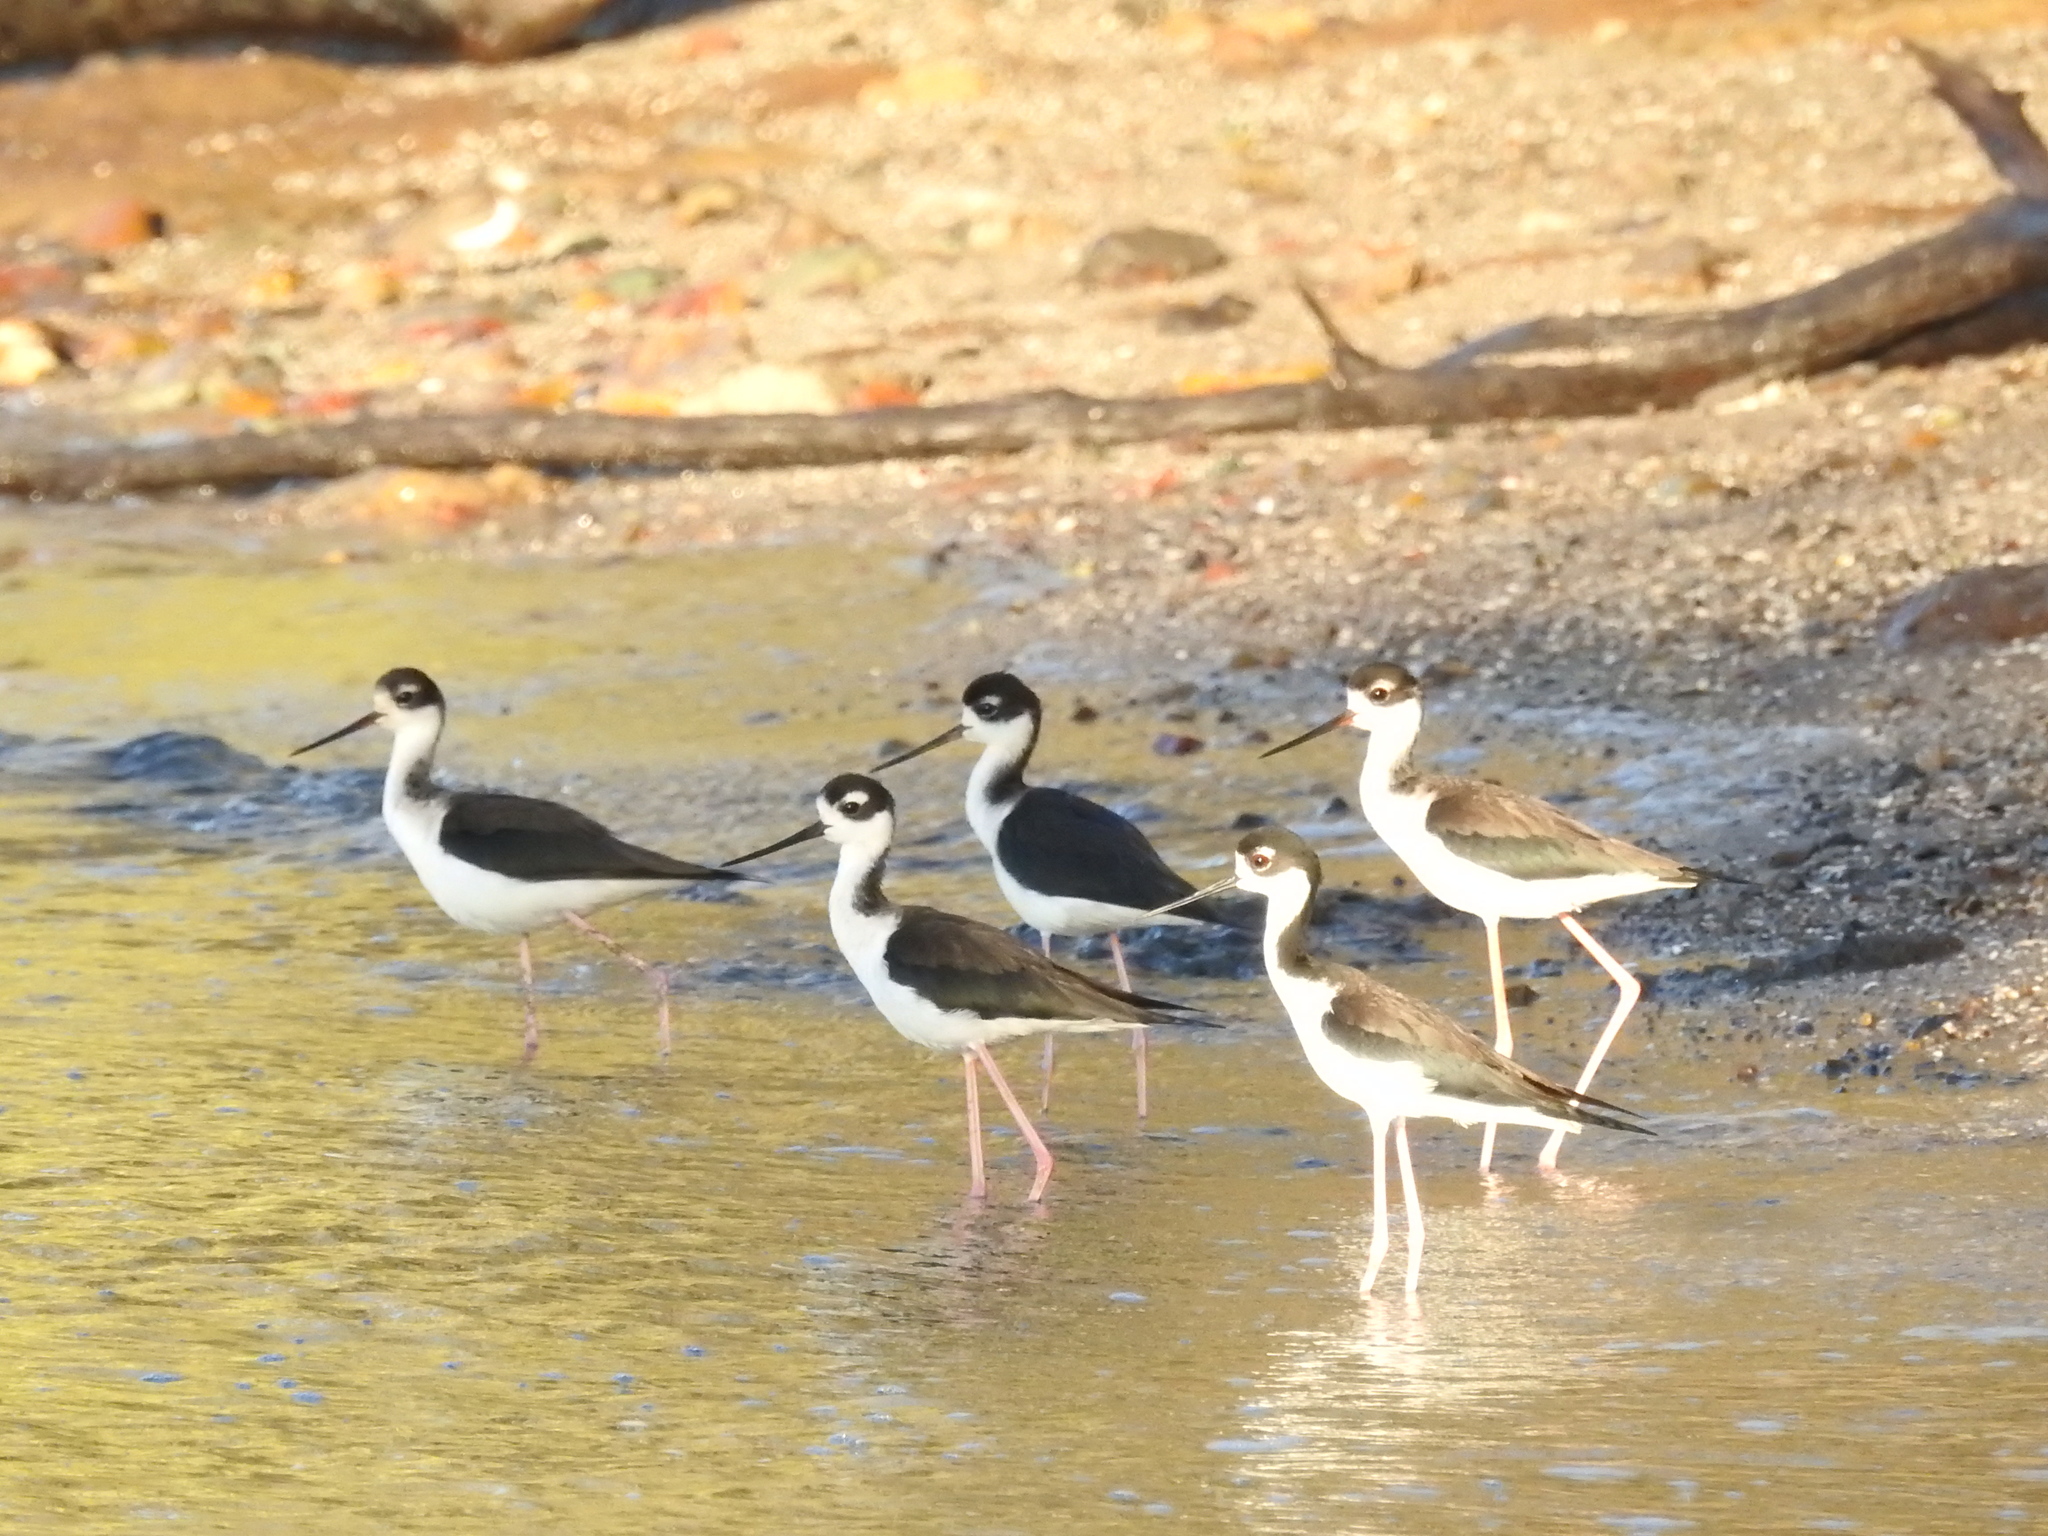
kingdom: Animalia
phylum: Chordata
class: Aves
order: Charadriiformes
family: Recurvirostridae
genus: Himantopus
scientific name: Himantopus mexicanus
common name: Black-necked stilt
